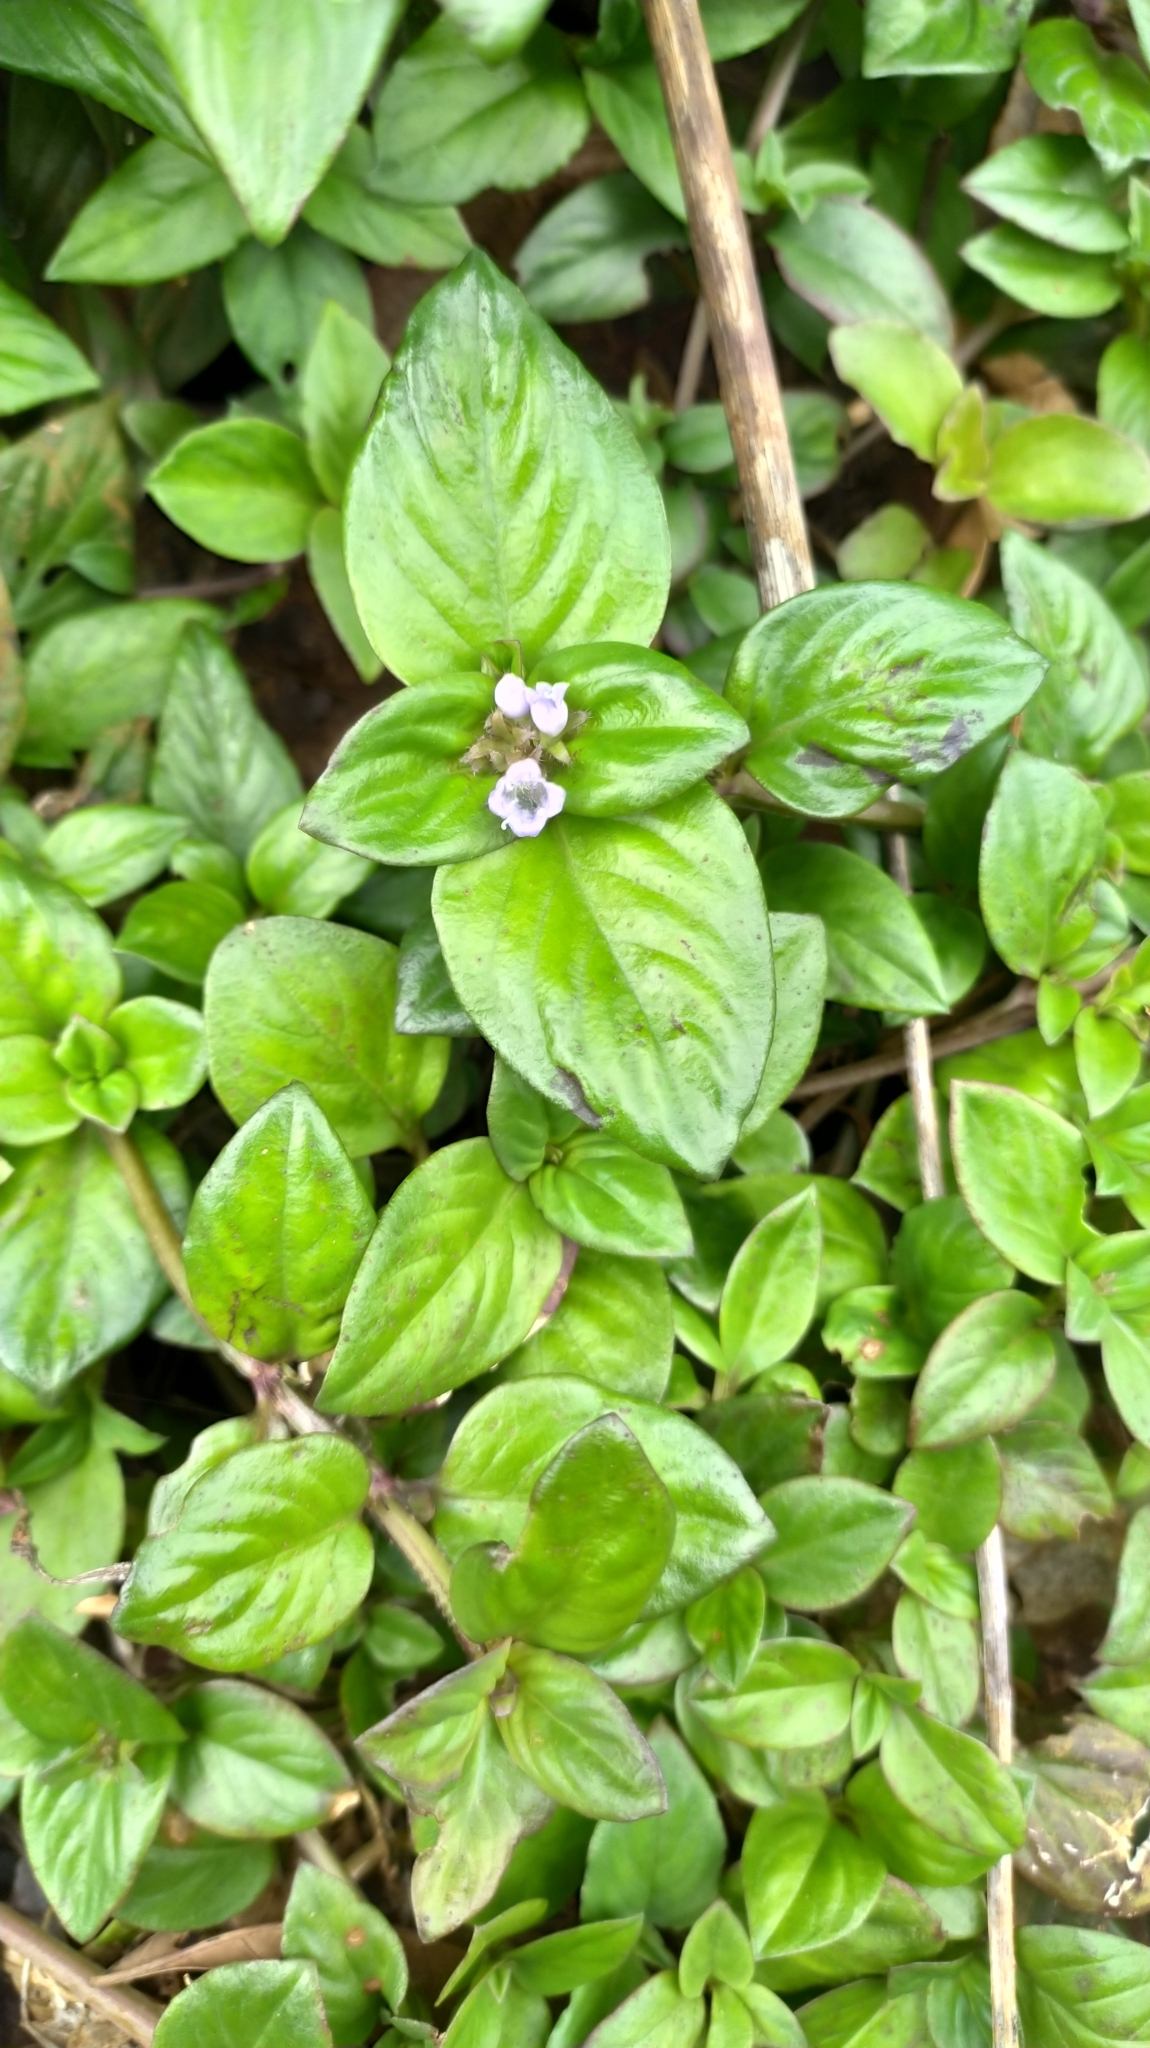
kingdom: Plantae
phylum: Tracheophyta
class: Magnoliopsida
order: Gentianales
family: Rubiaceae
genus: Spermacoce
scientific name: Spermacoce alata
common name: Winged false buttonweed
